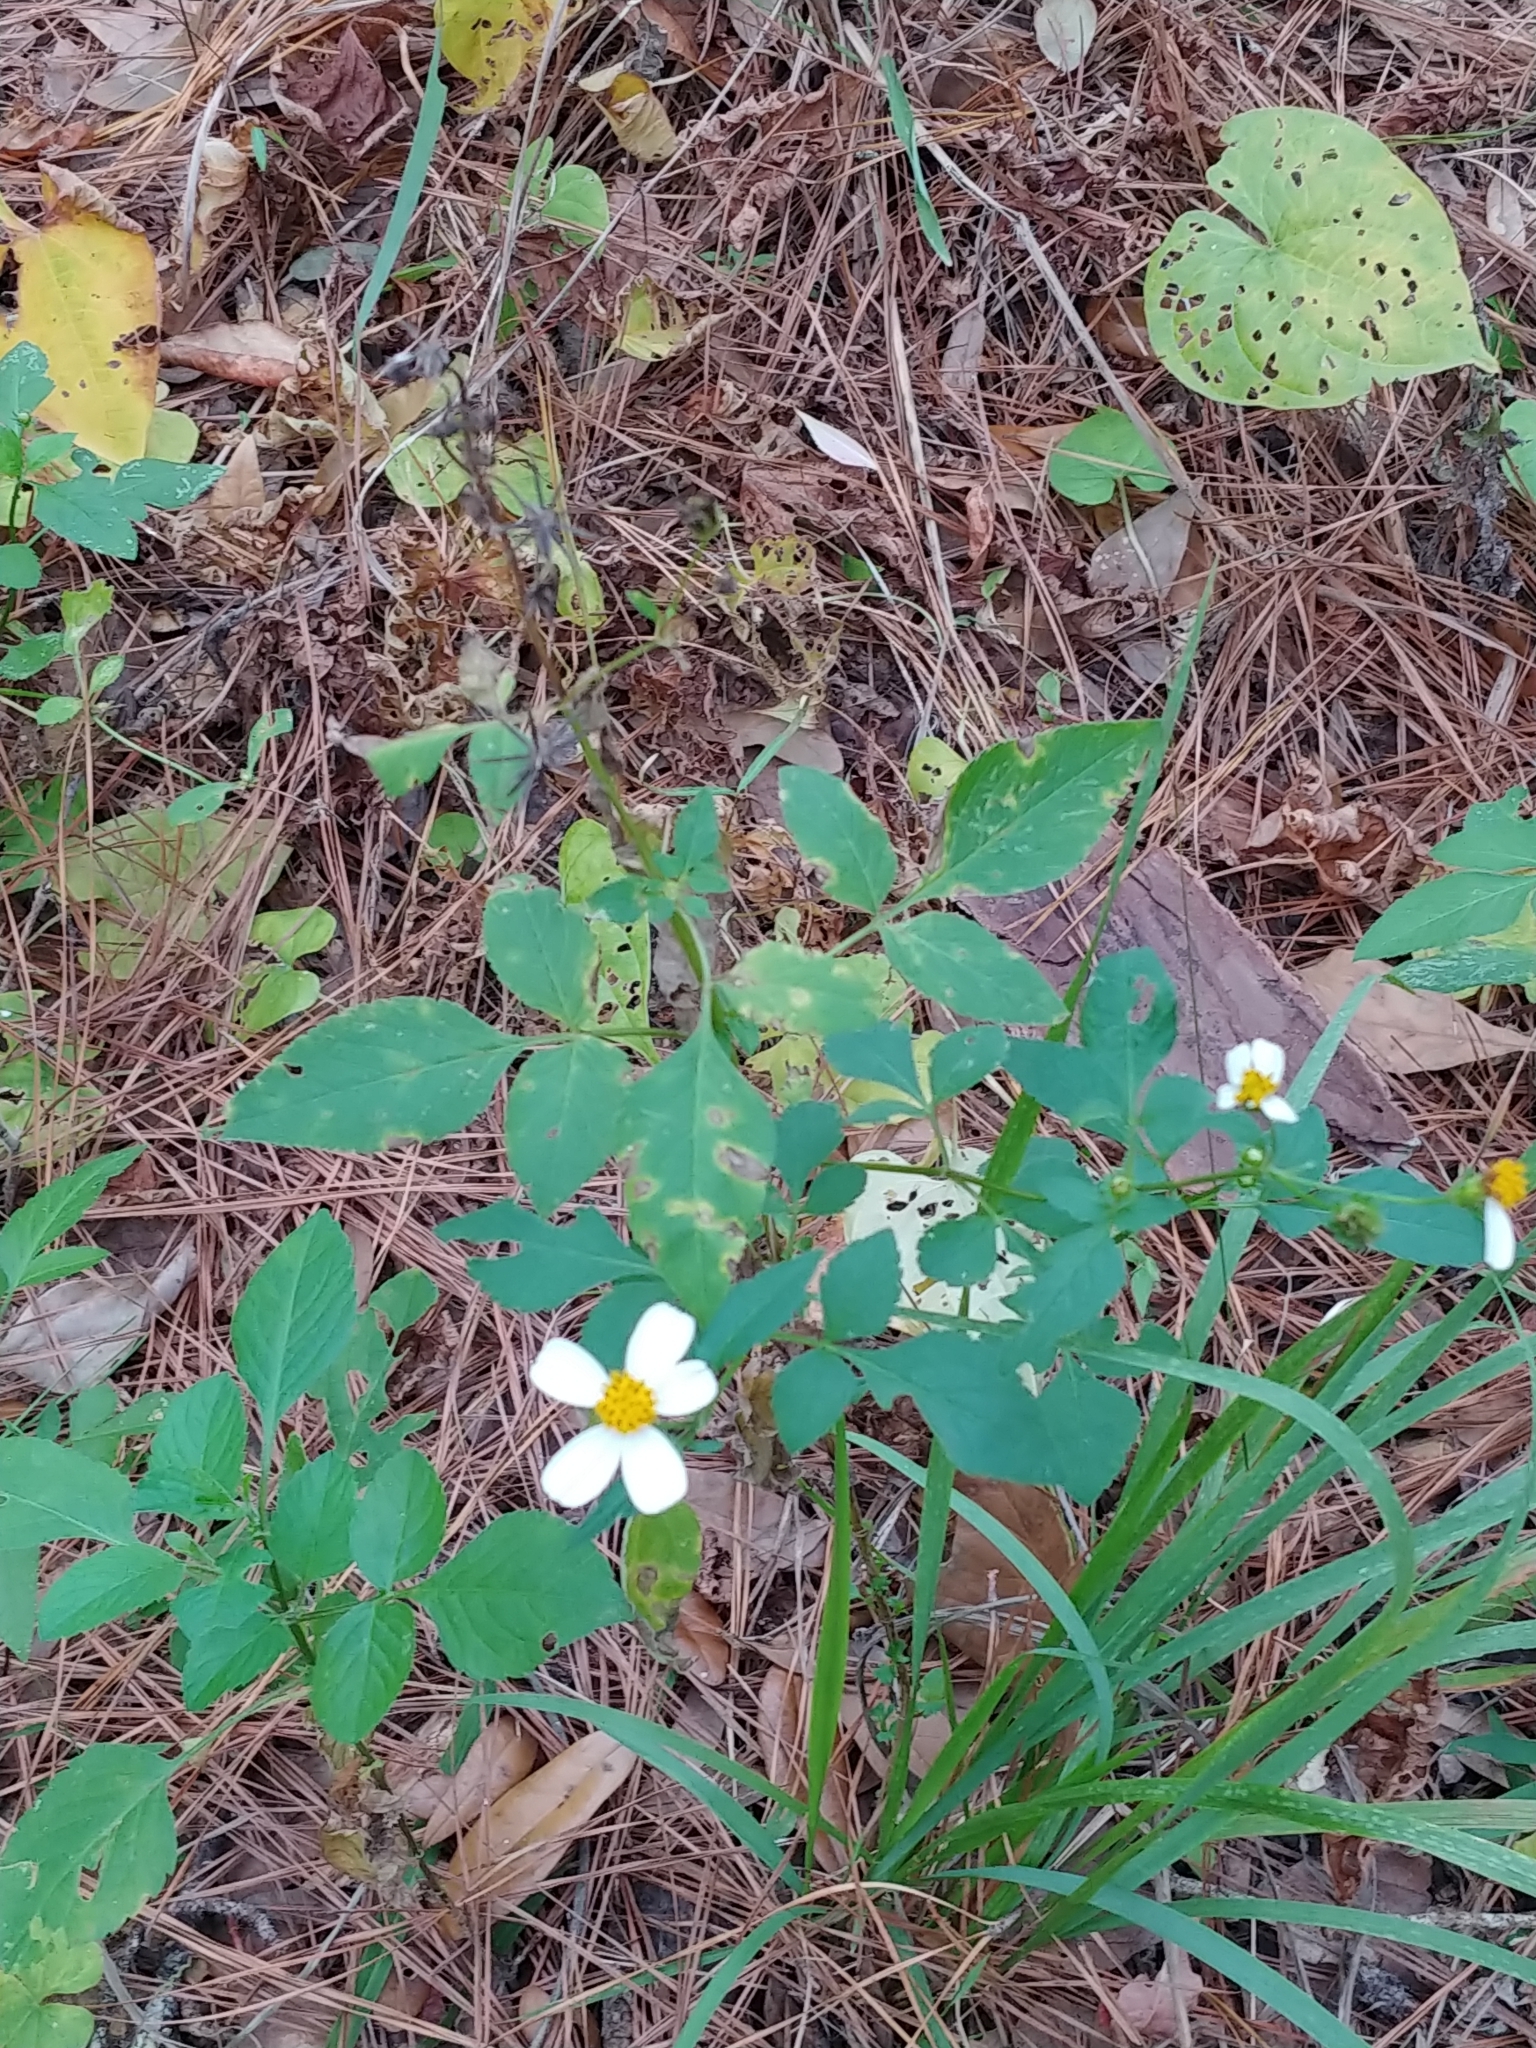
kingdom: Plantae
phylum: Tracheophyta
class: Magnoliopsida
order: Asterales
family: Asteraceae
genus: Bidens
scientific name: Bidens alba
